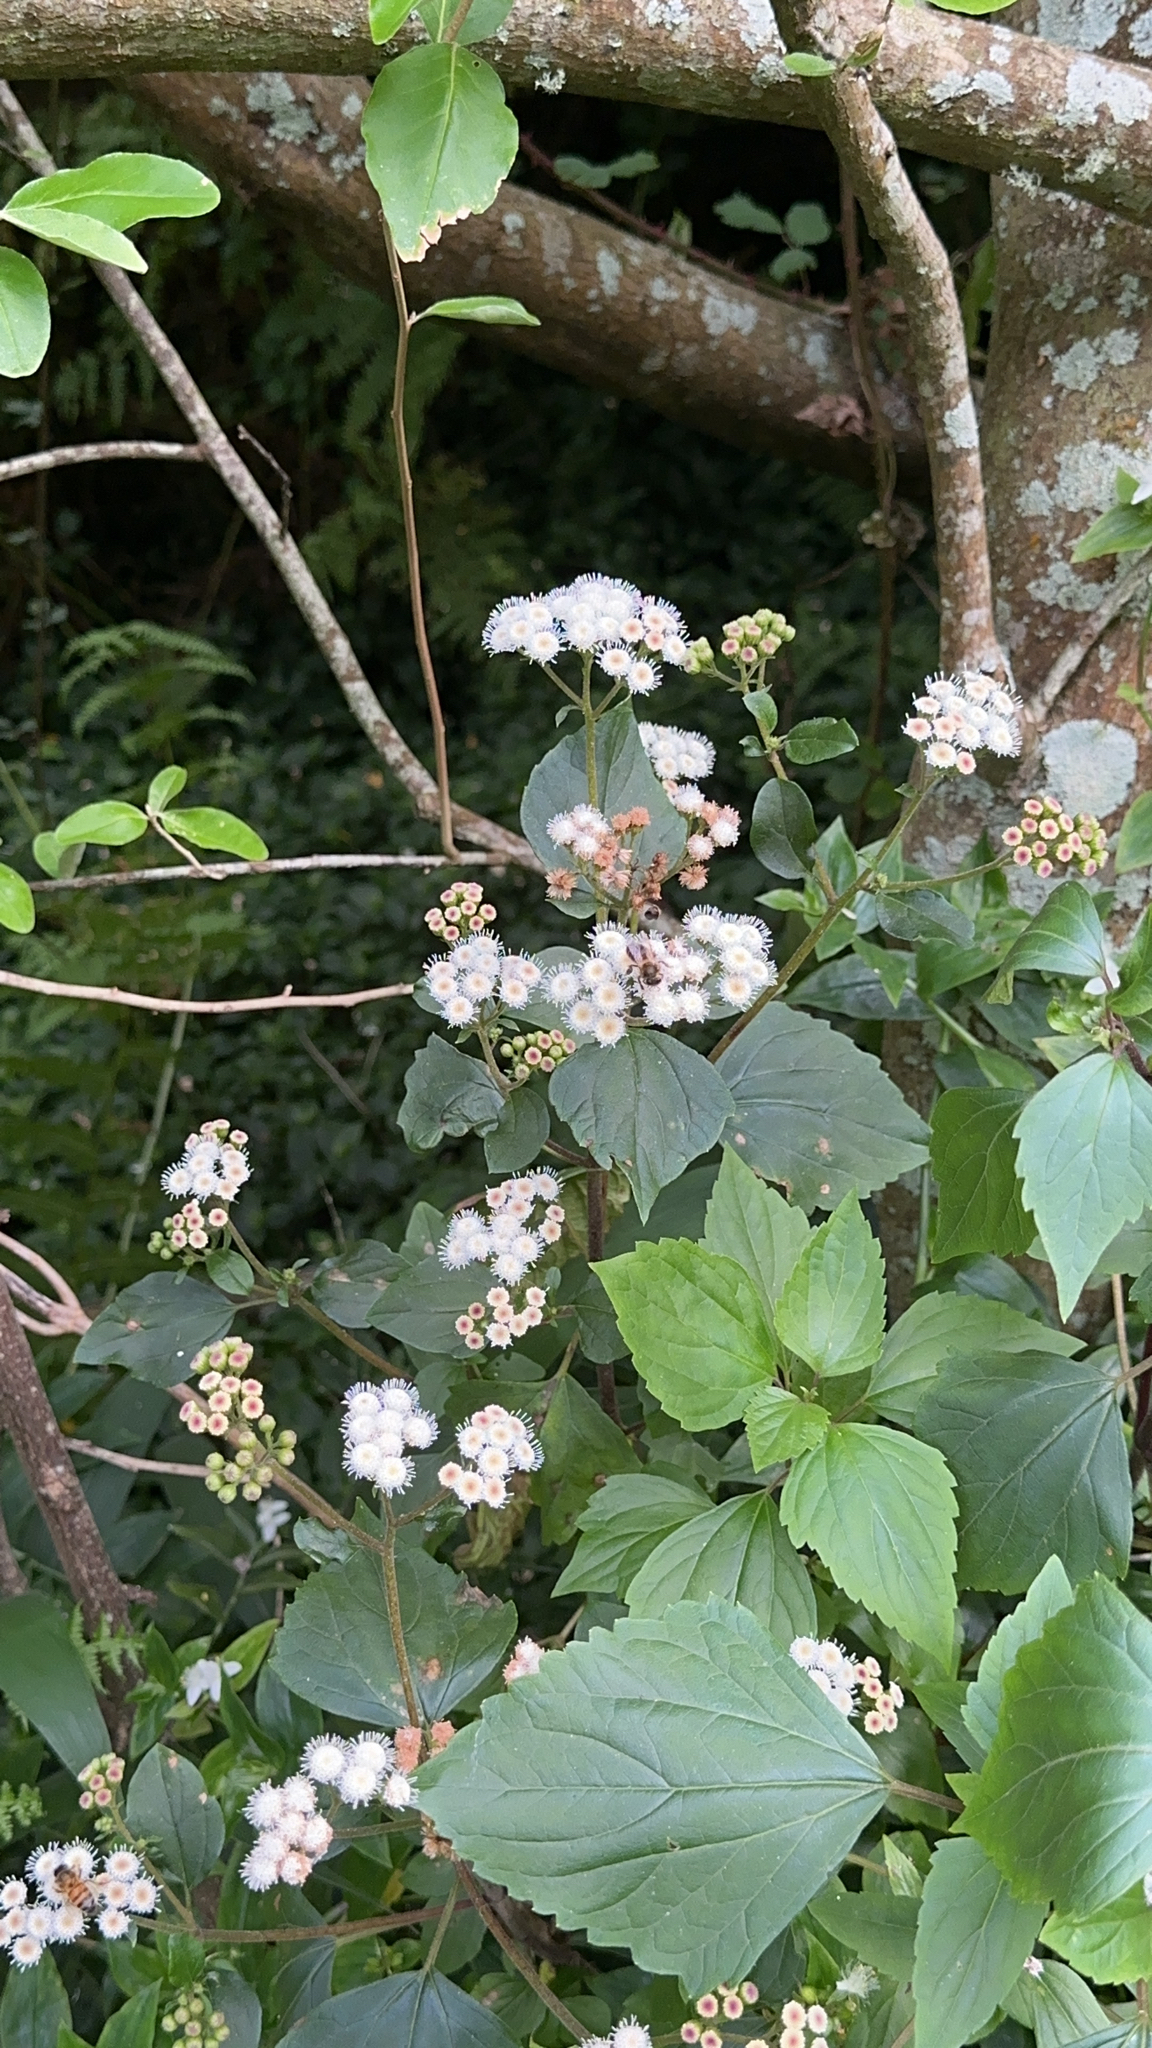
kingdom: Plantae
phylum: Tracheophyta
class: Magnoliopsida
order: Asterales
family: Asteraceae
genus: Ageratina
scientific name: Ageratina adenophora
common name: Sticky snakeroot
